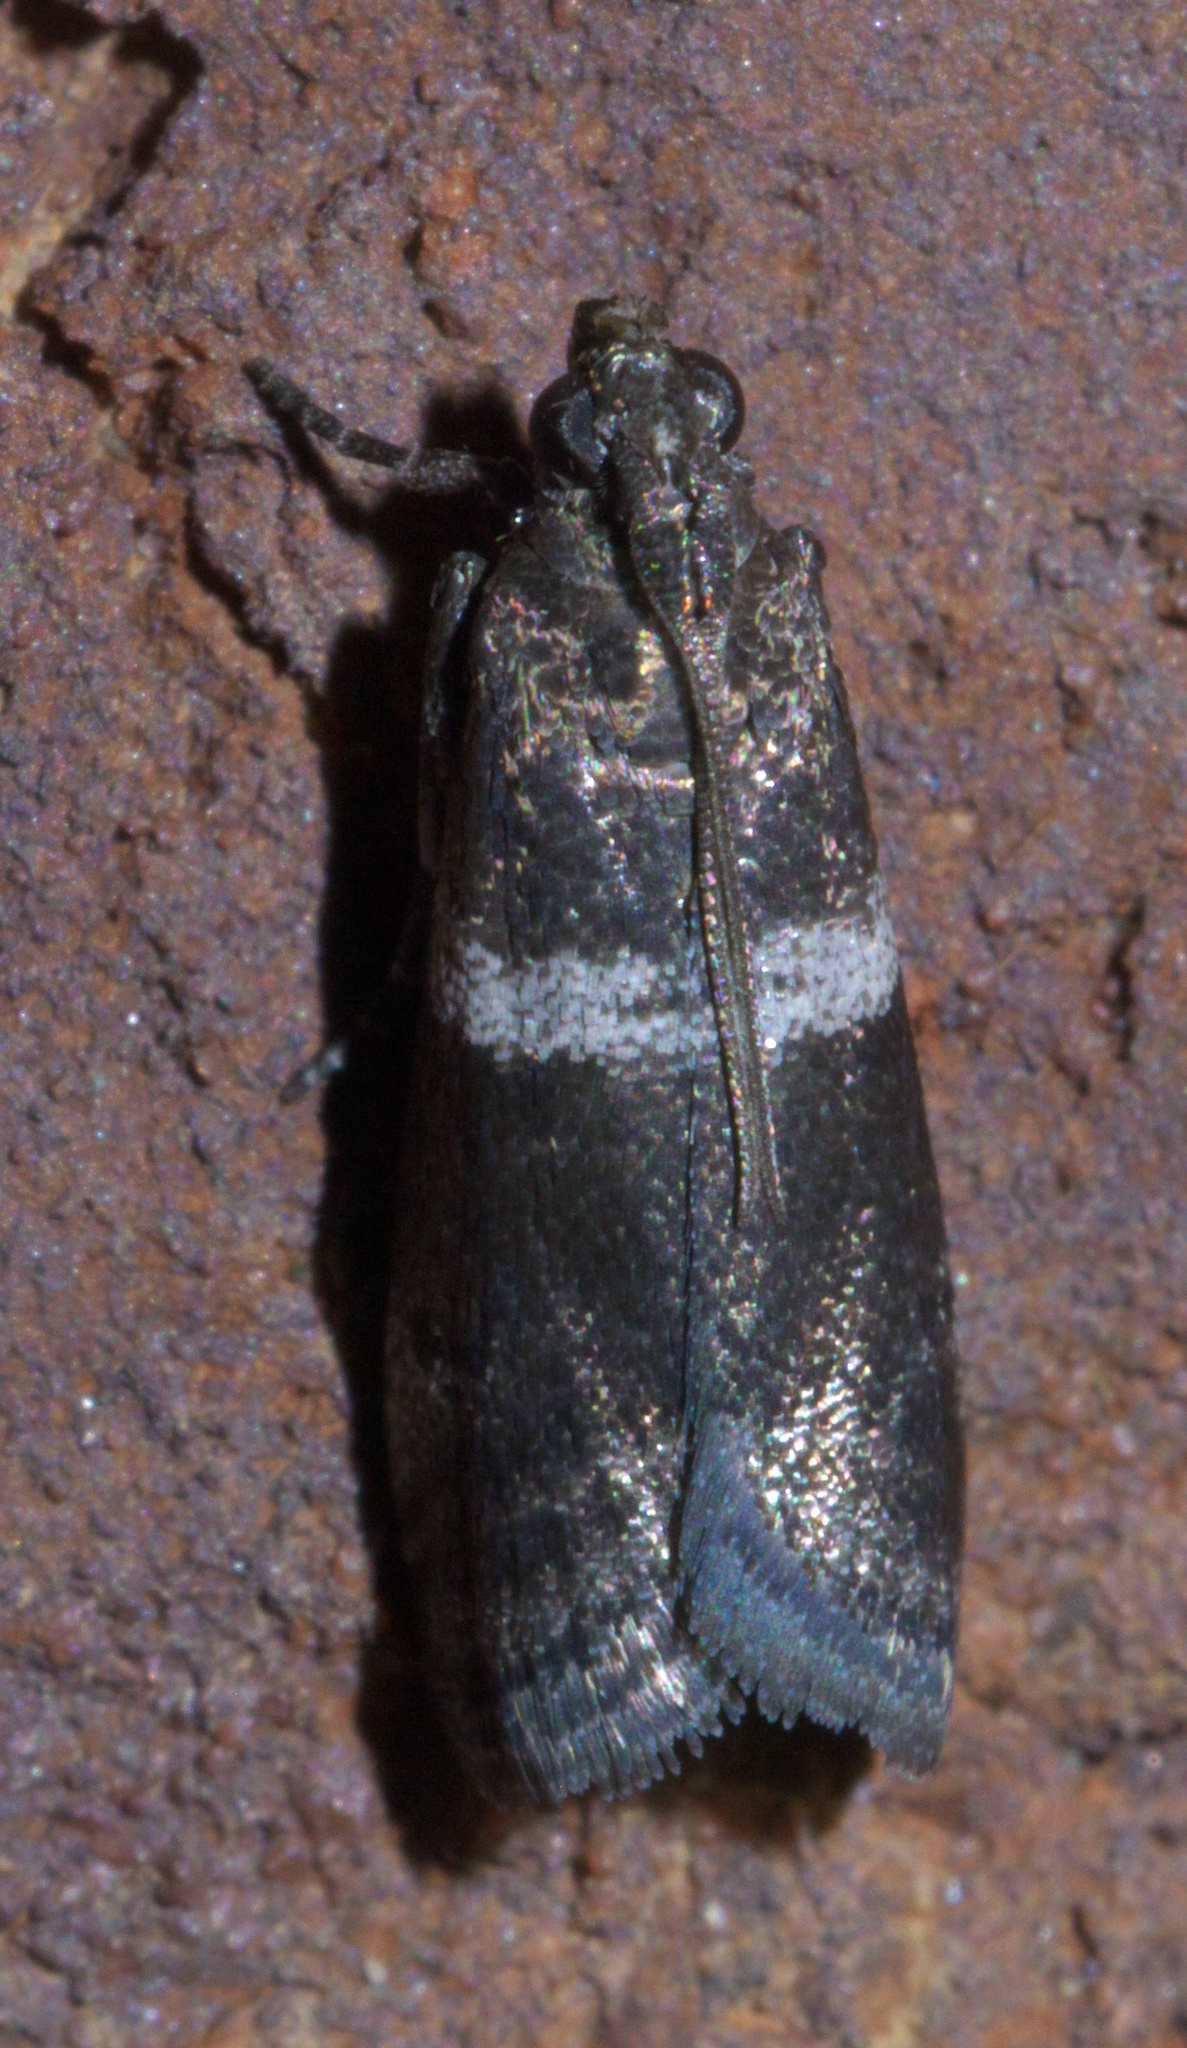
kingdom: Animalia
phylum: Arthropoda
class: Insecta
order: Lepidoptera
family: Pyralidae
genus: Psorosina
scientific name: Psorosina hammondi
